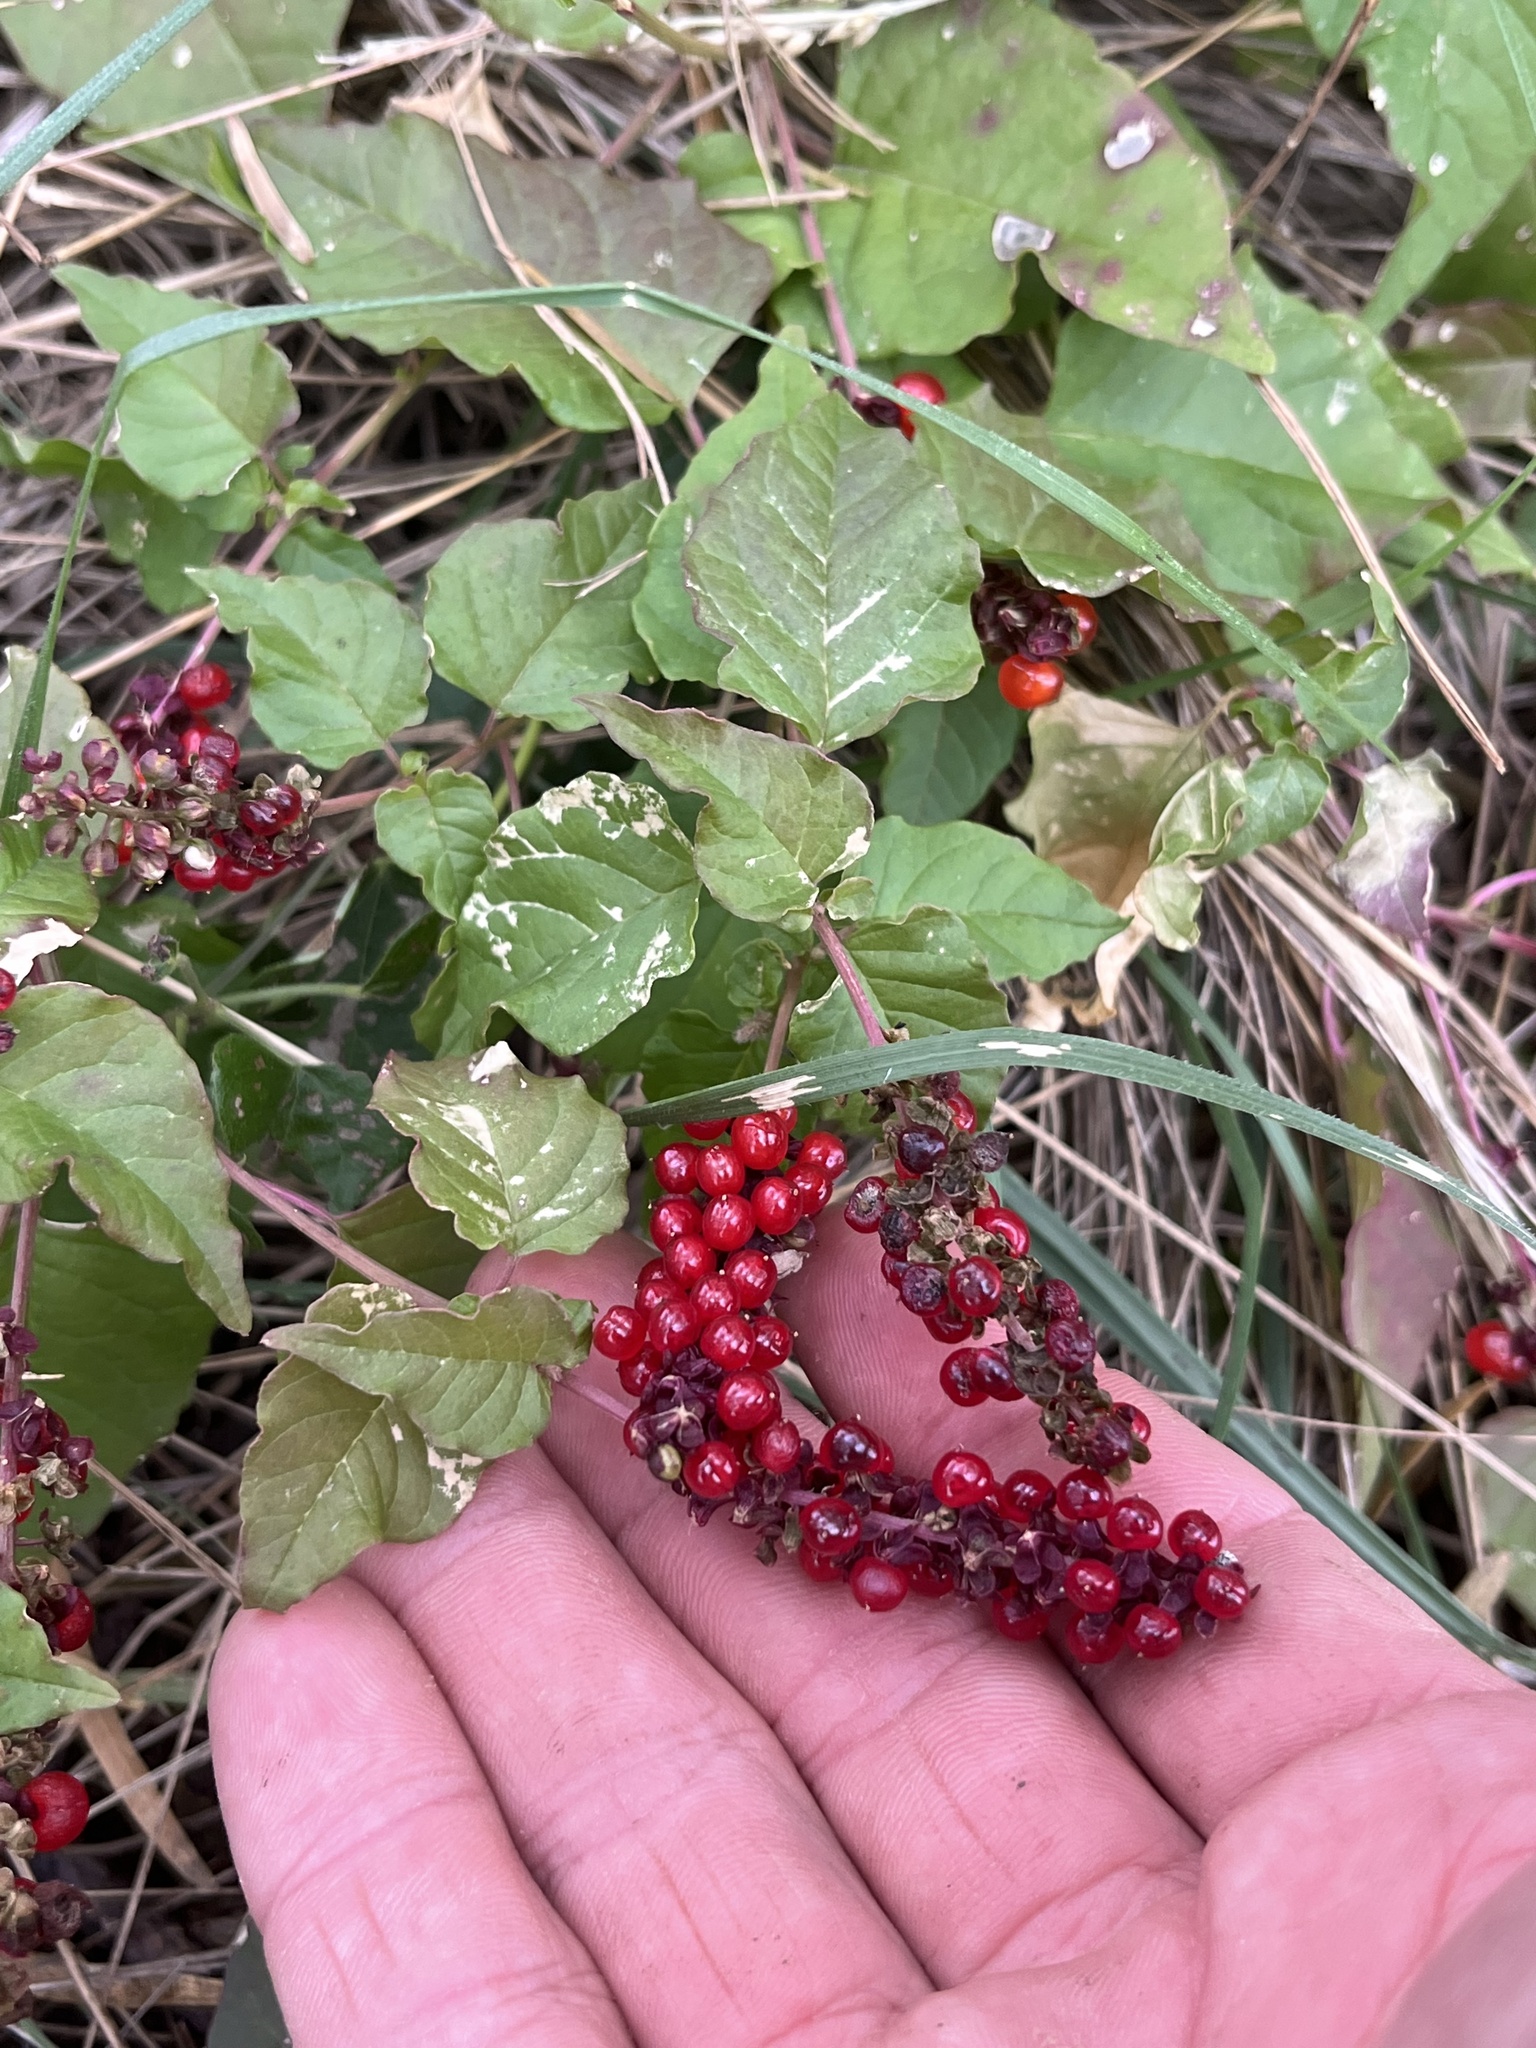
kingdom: Plantae
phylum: Tracheophyta
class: Magnoliopsida
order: Caryophyllales
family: Phytolaccaceae
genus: Rivina
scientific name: Rivina humilis
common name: Rougeplant
